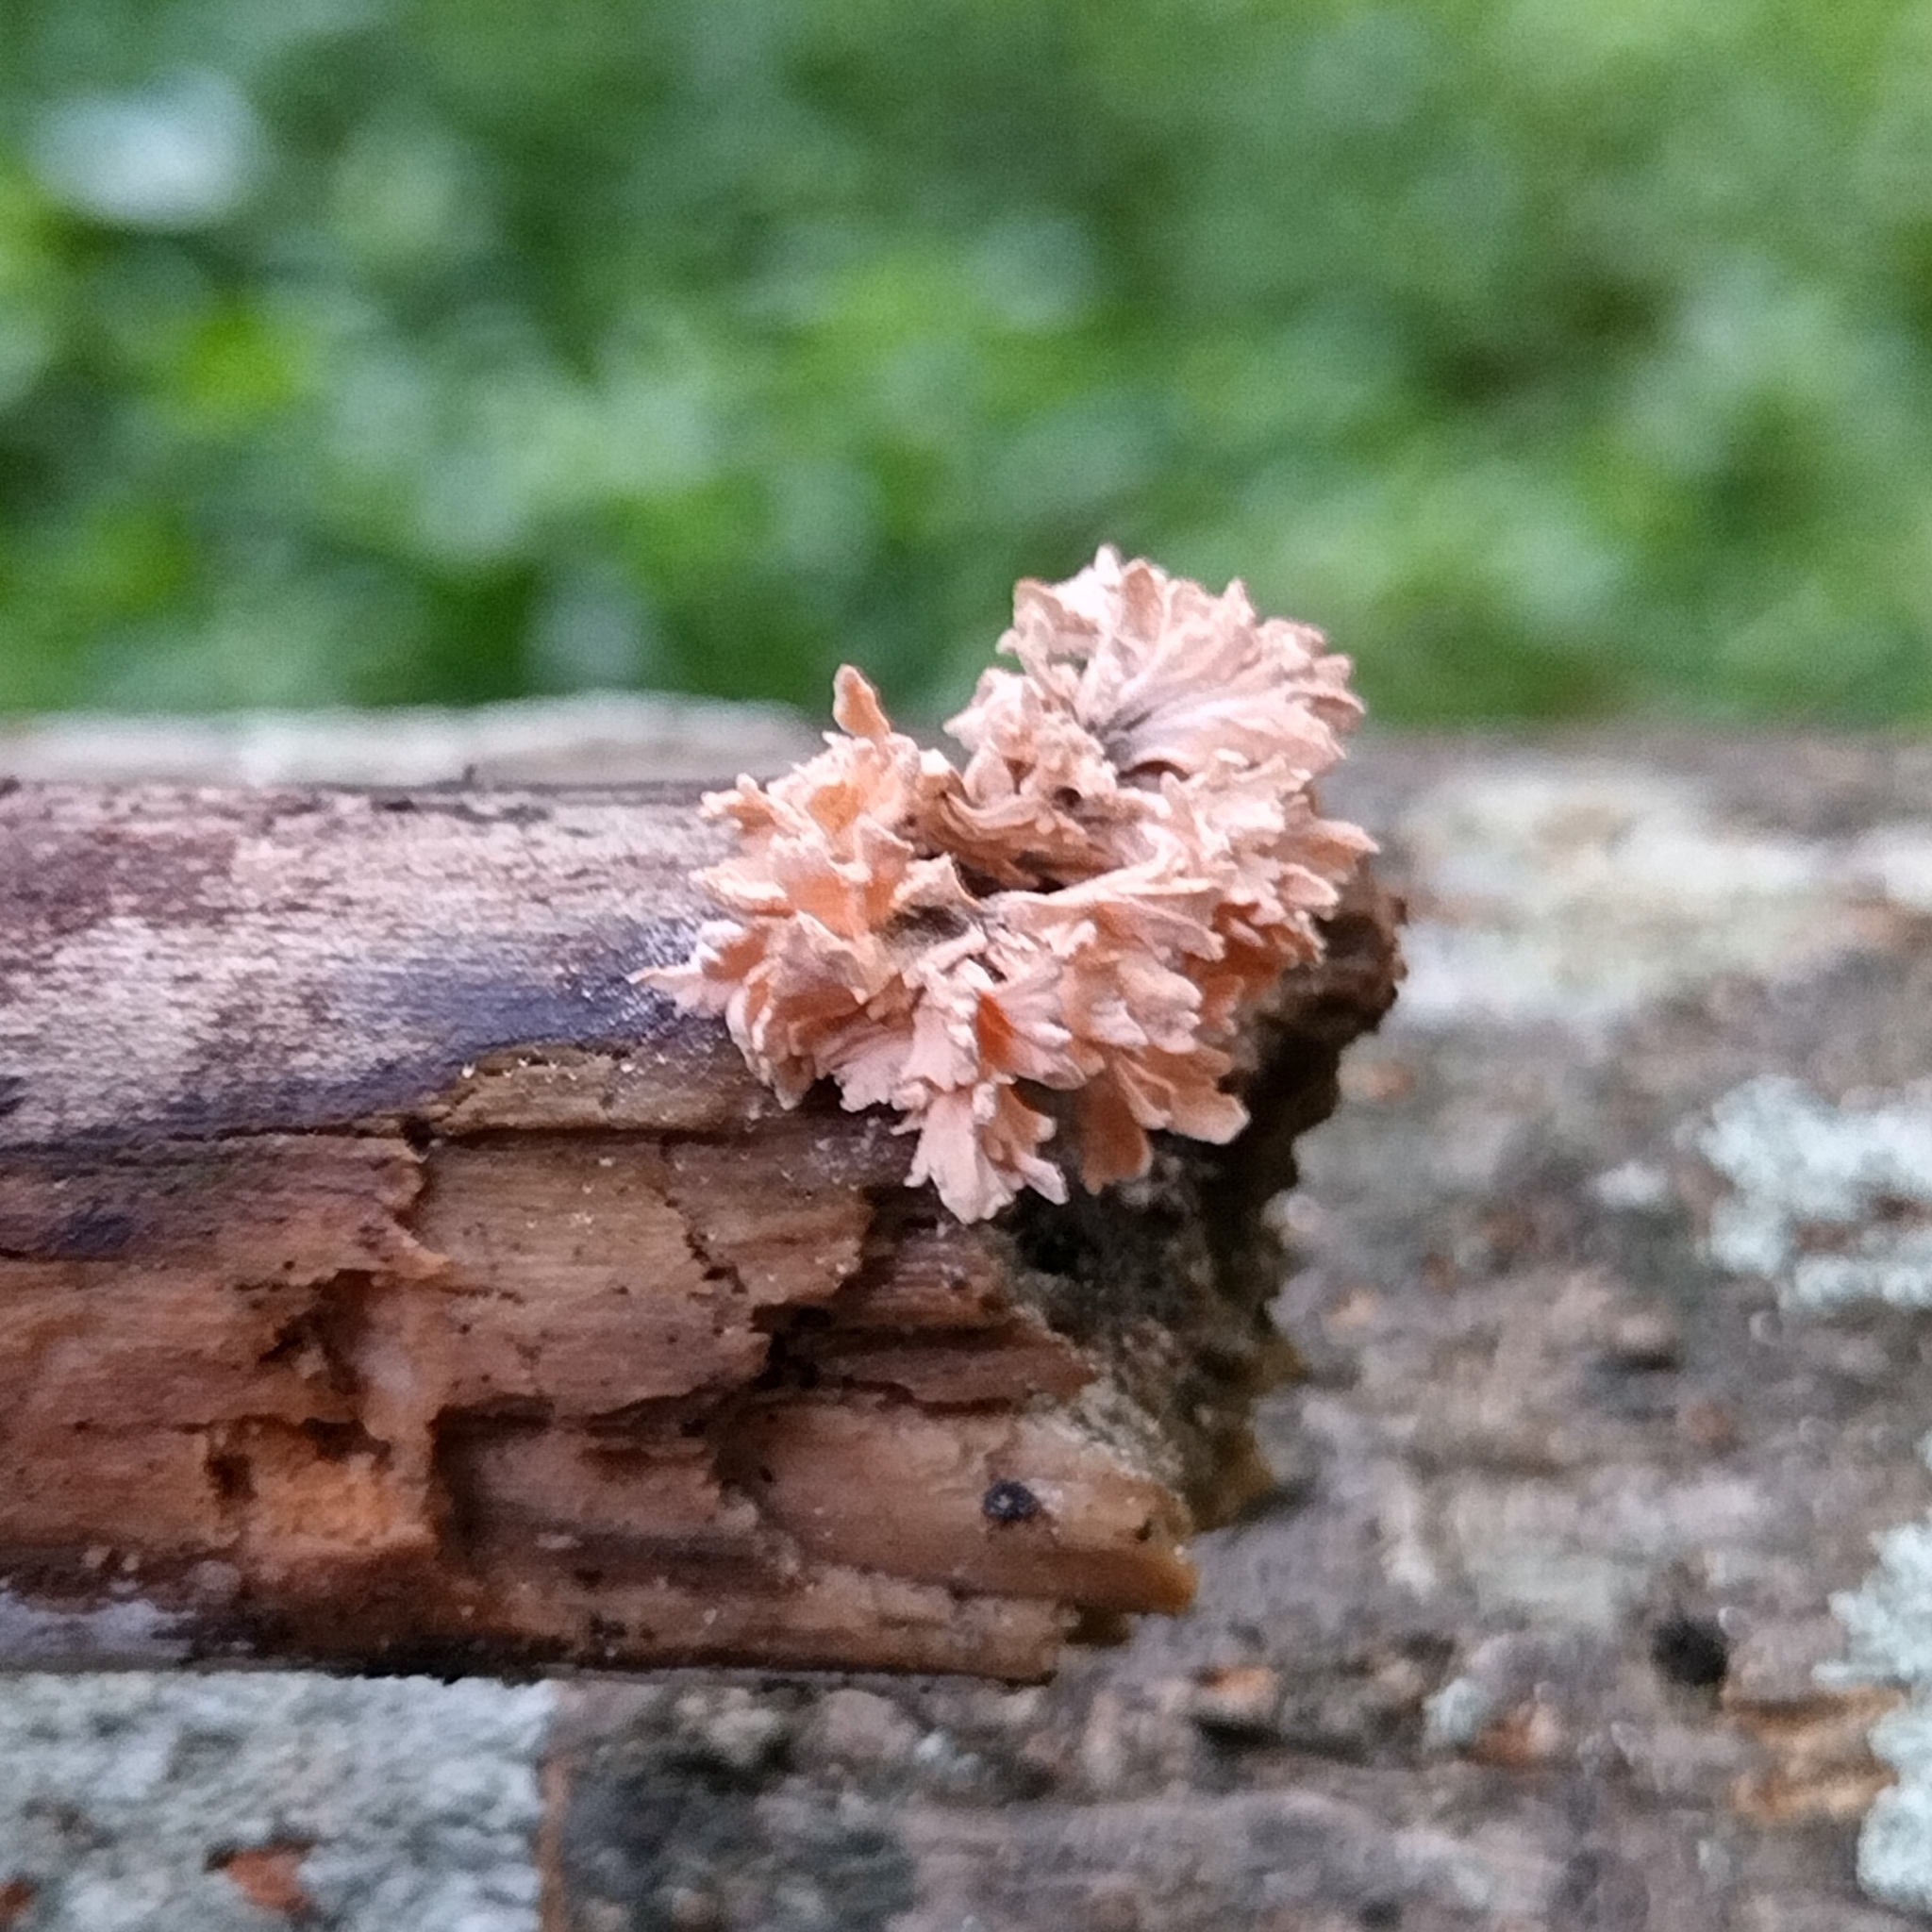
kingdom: Fungi
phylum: Ascomycota
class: Sordariomycetes
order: Xylariales
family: Xylariaceae
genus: Xylaria
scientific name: Xylaria cubensis
